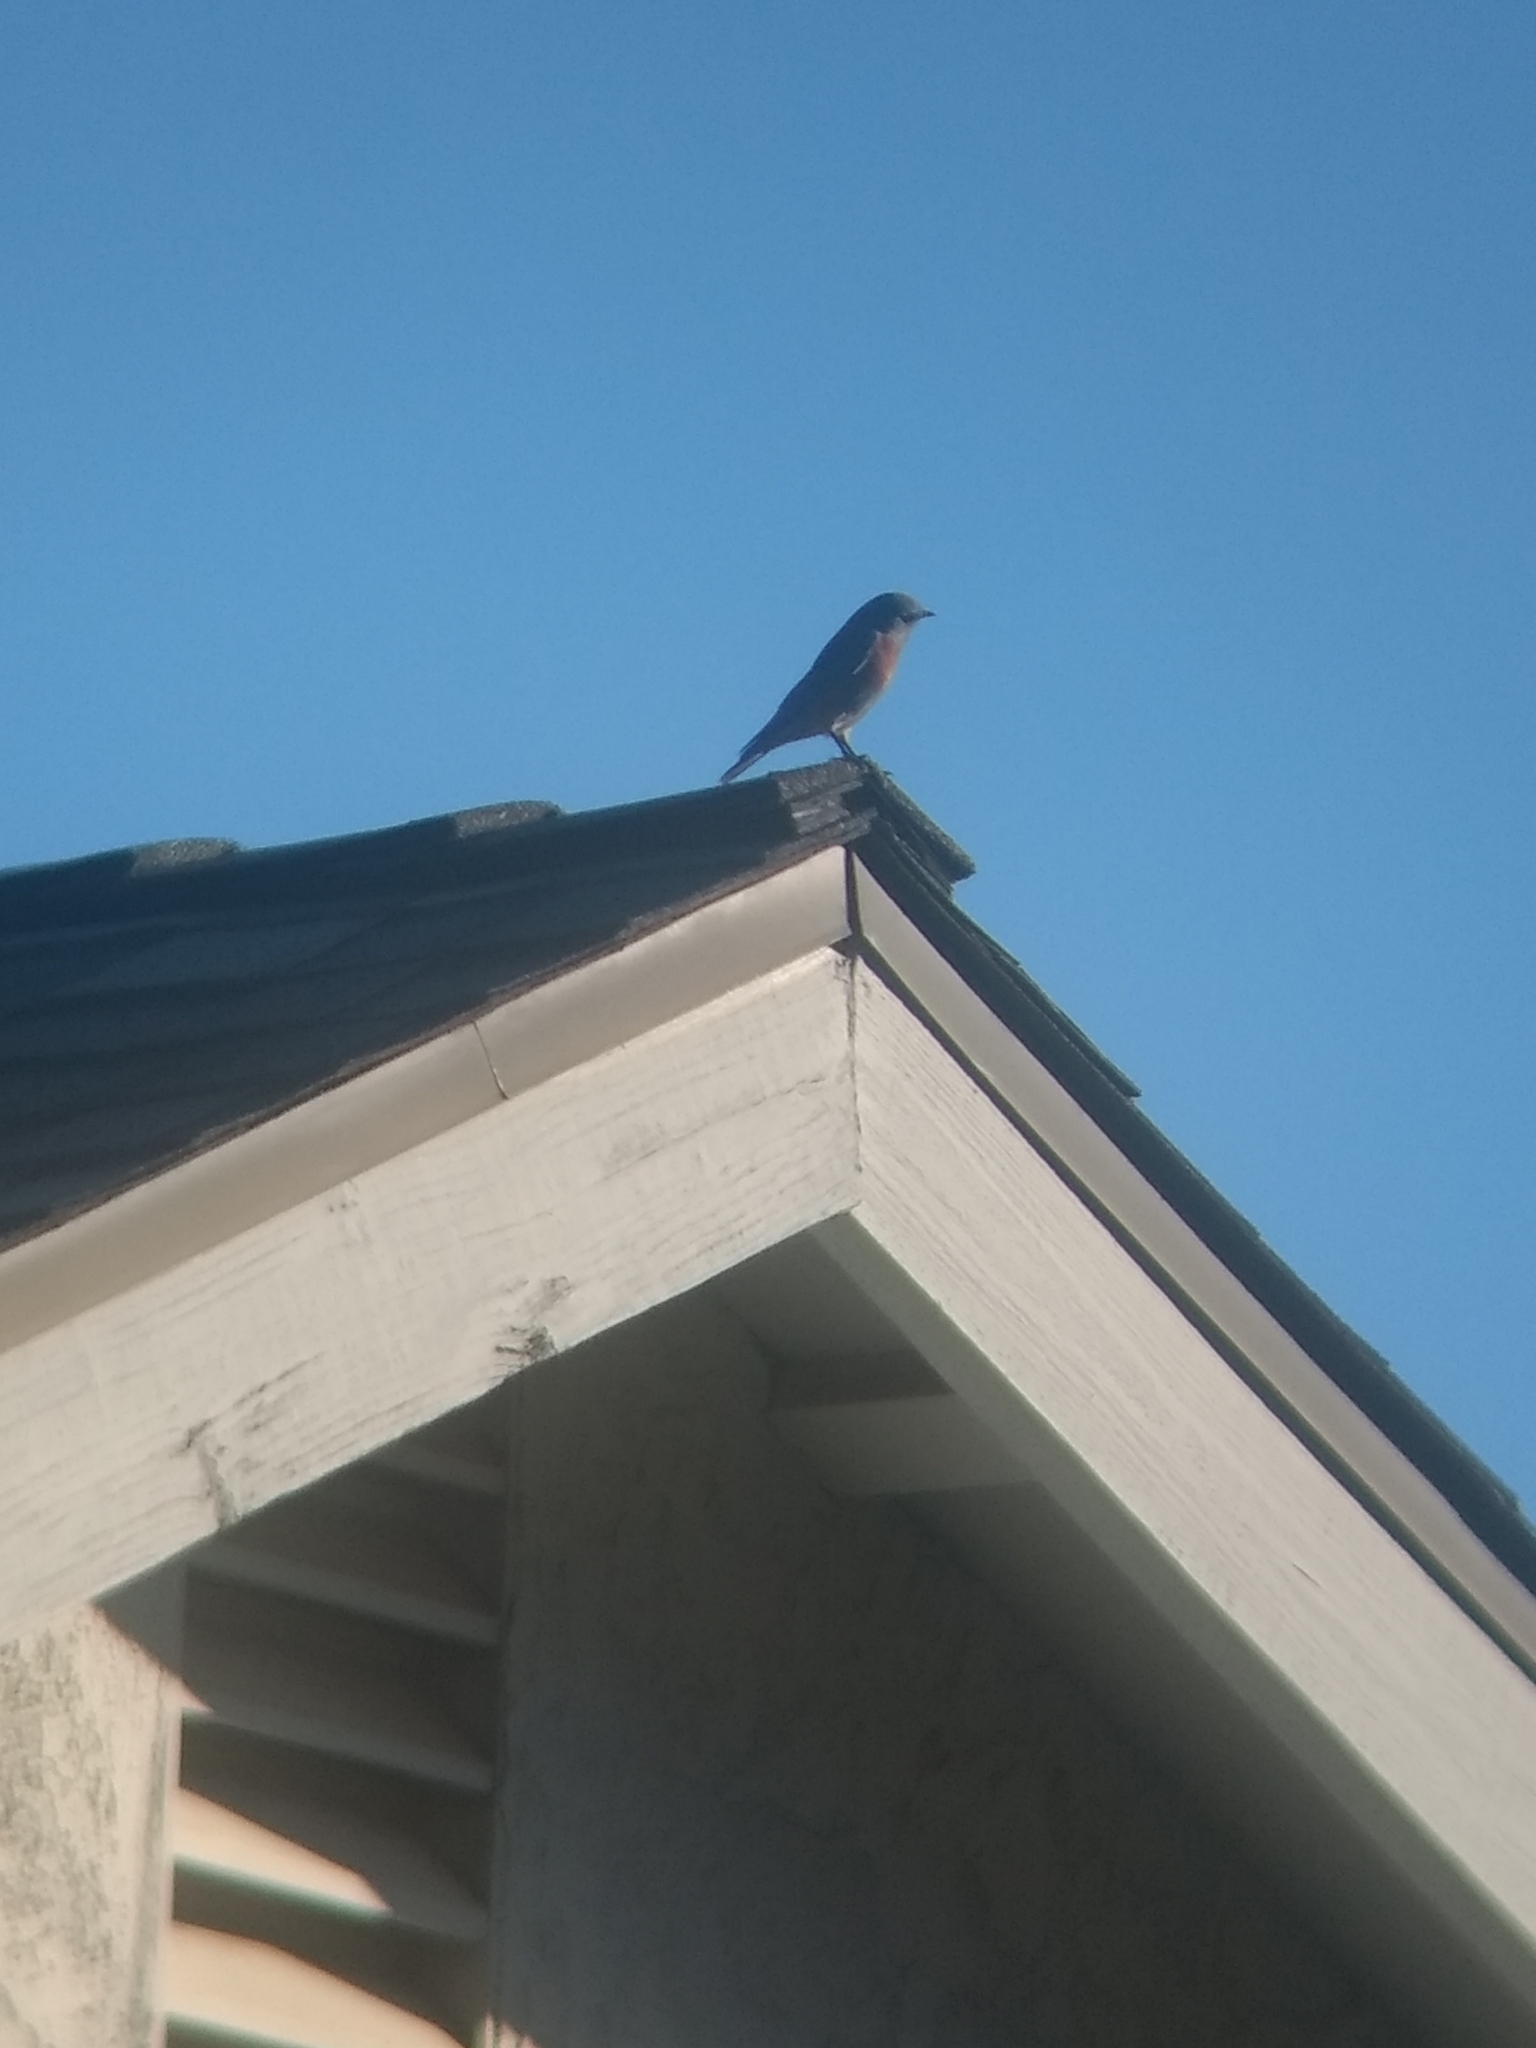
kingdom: Animalia
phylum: Chordata
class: Aves
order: Passeriformes
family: Turdidae
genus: Sialia
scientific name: Sialia mexicana
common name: Western bluebird
